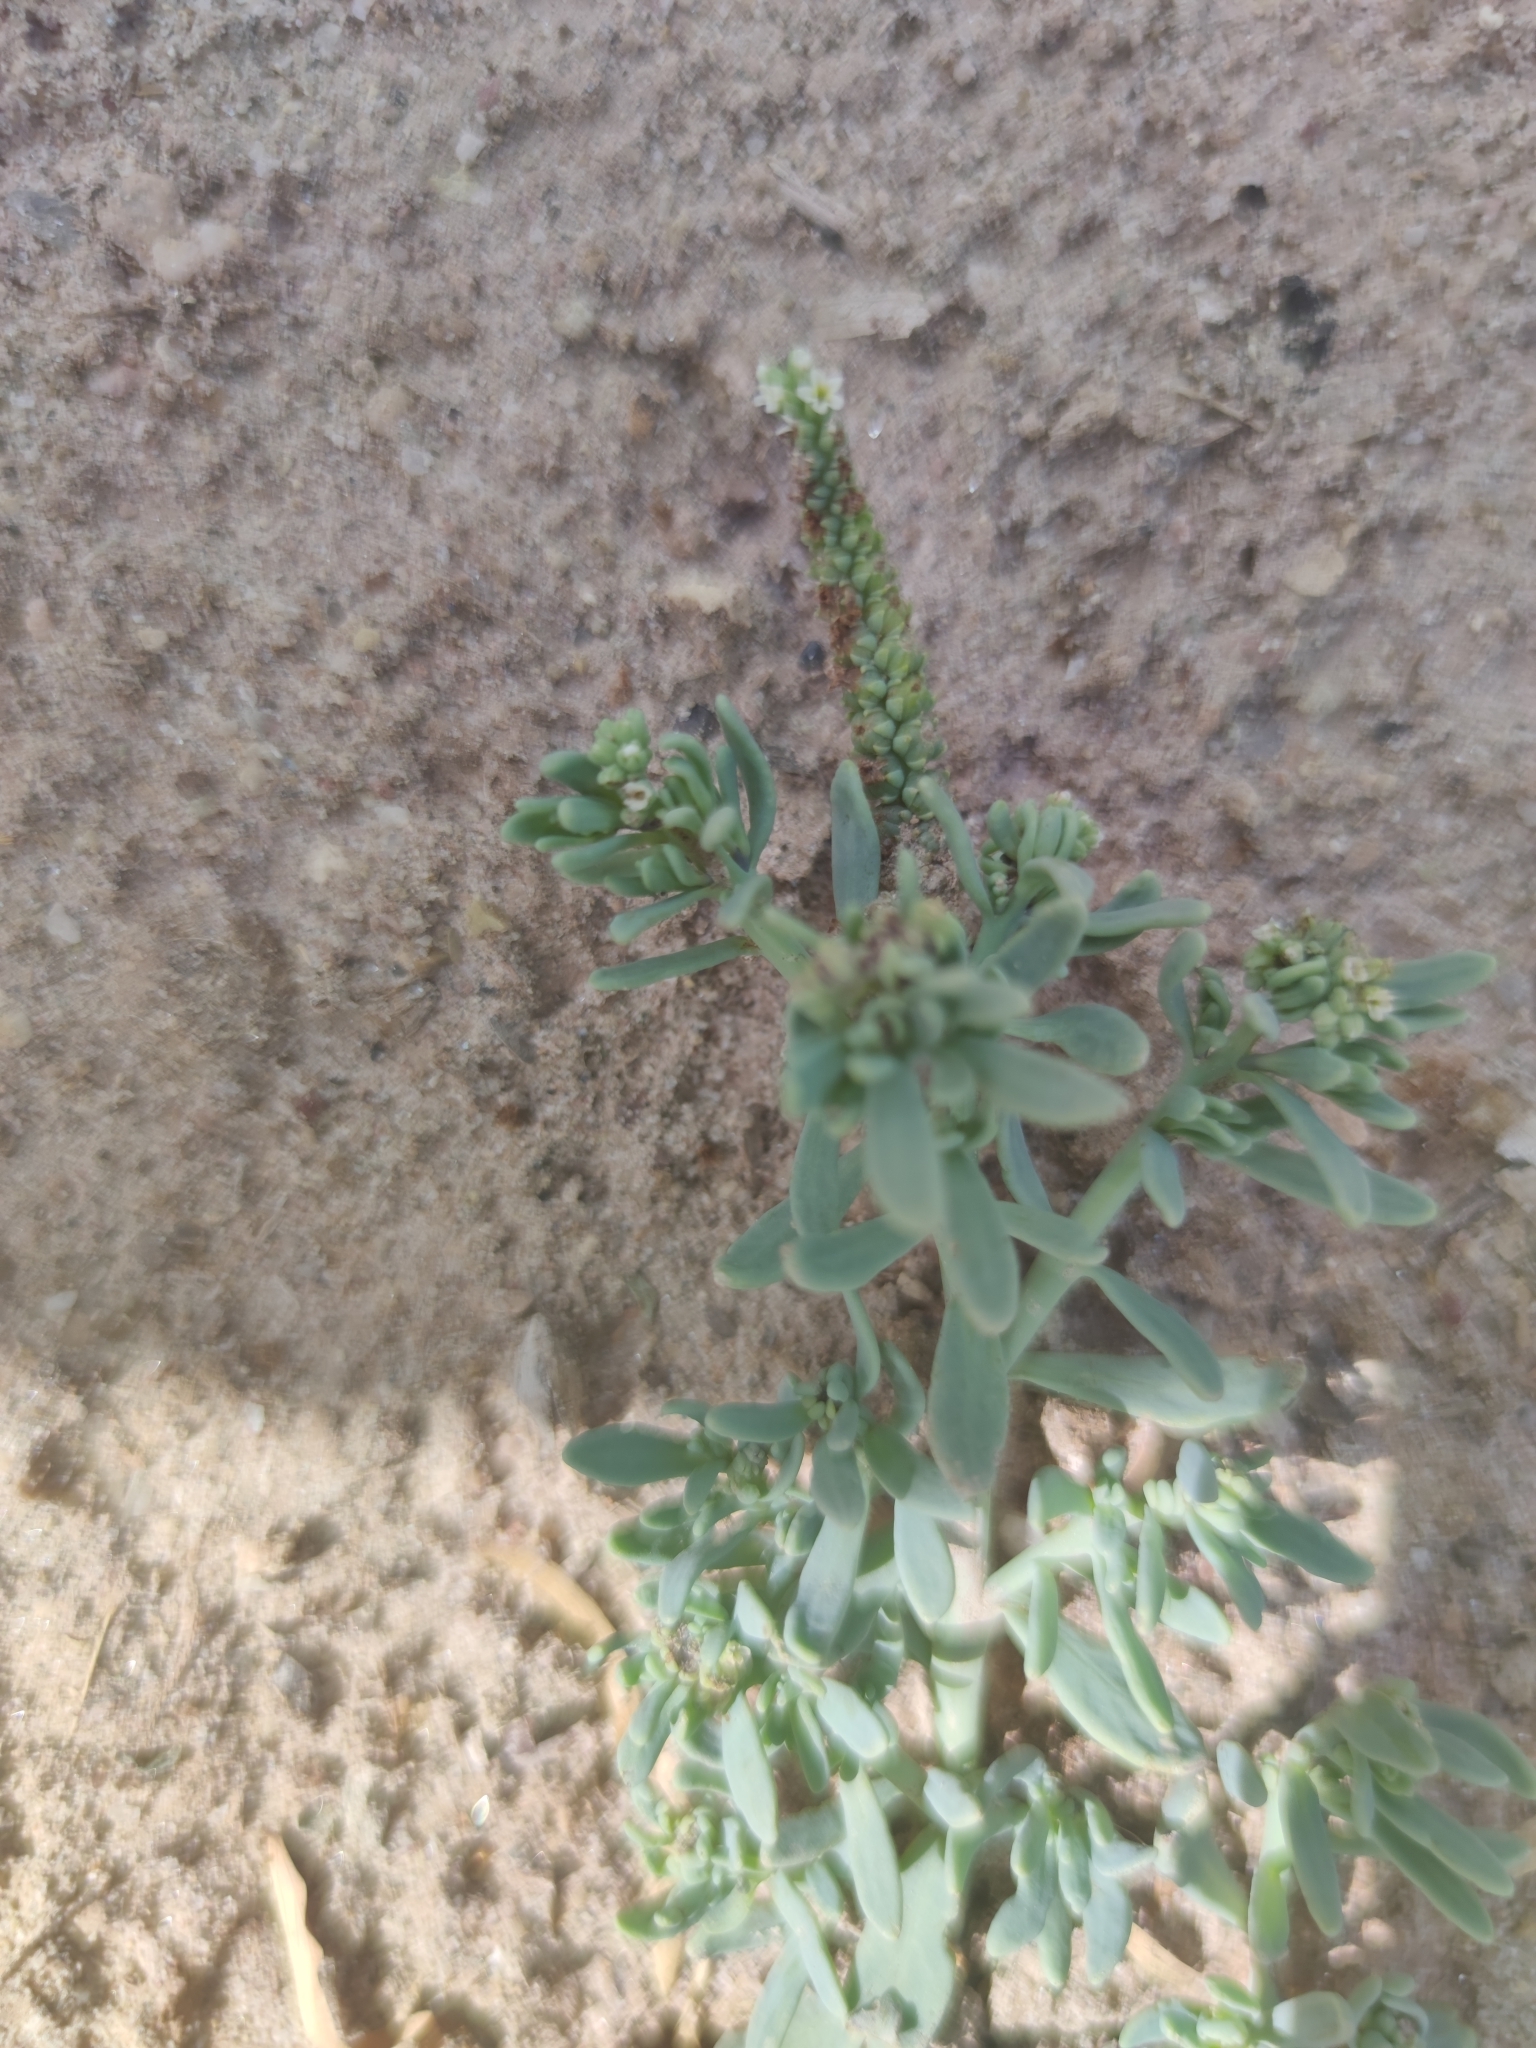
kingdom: Plantae
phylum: Tracheophyta
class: Magnoliopsida
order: Boraginales
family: Heliotropiaceae
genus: Heliotropium
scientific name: Heliotropium curassavicum
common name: Seaside heliotrope
